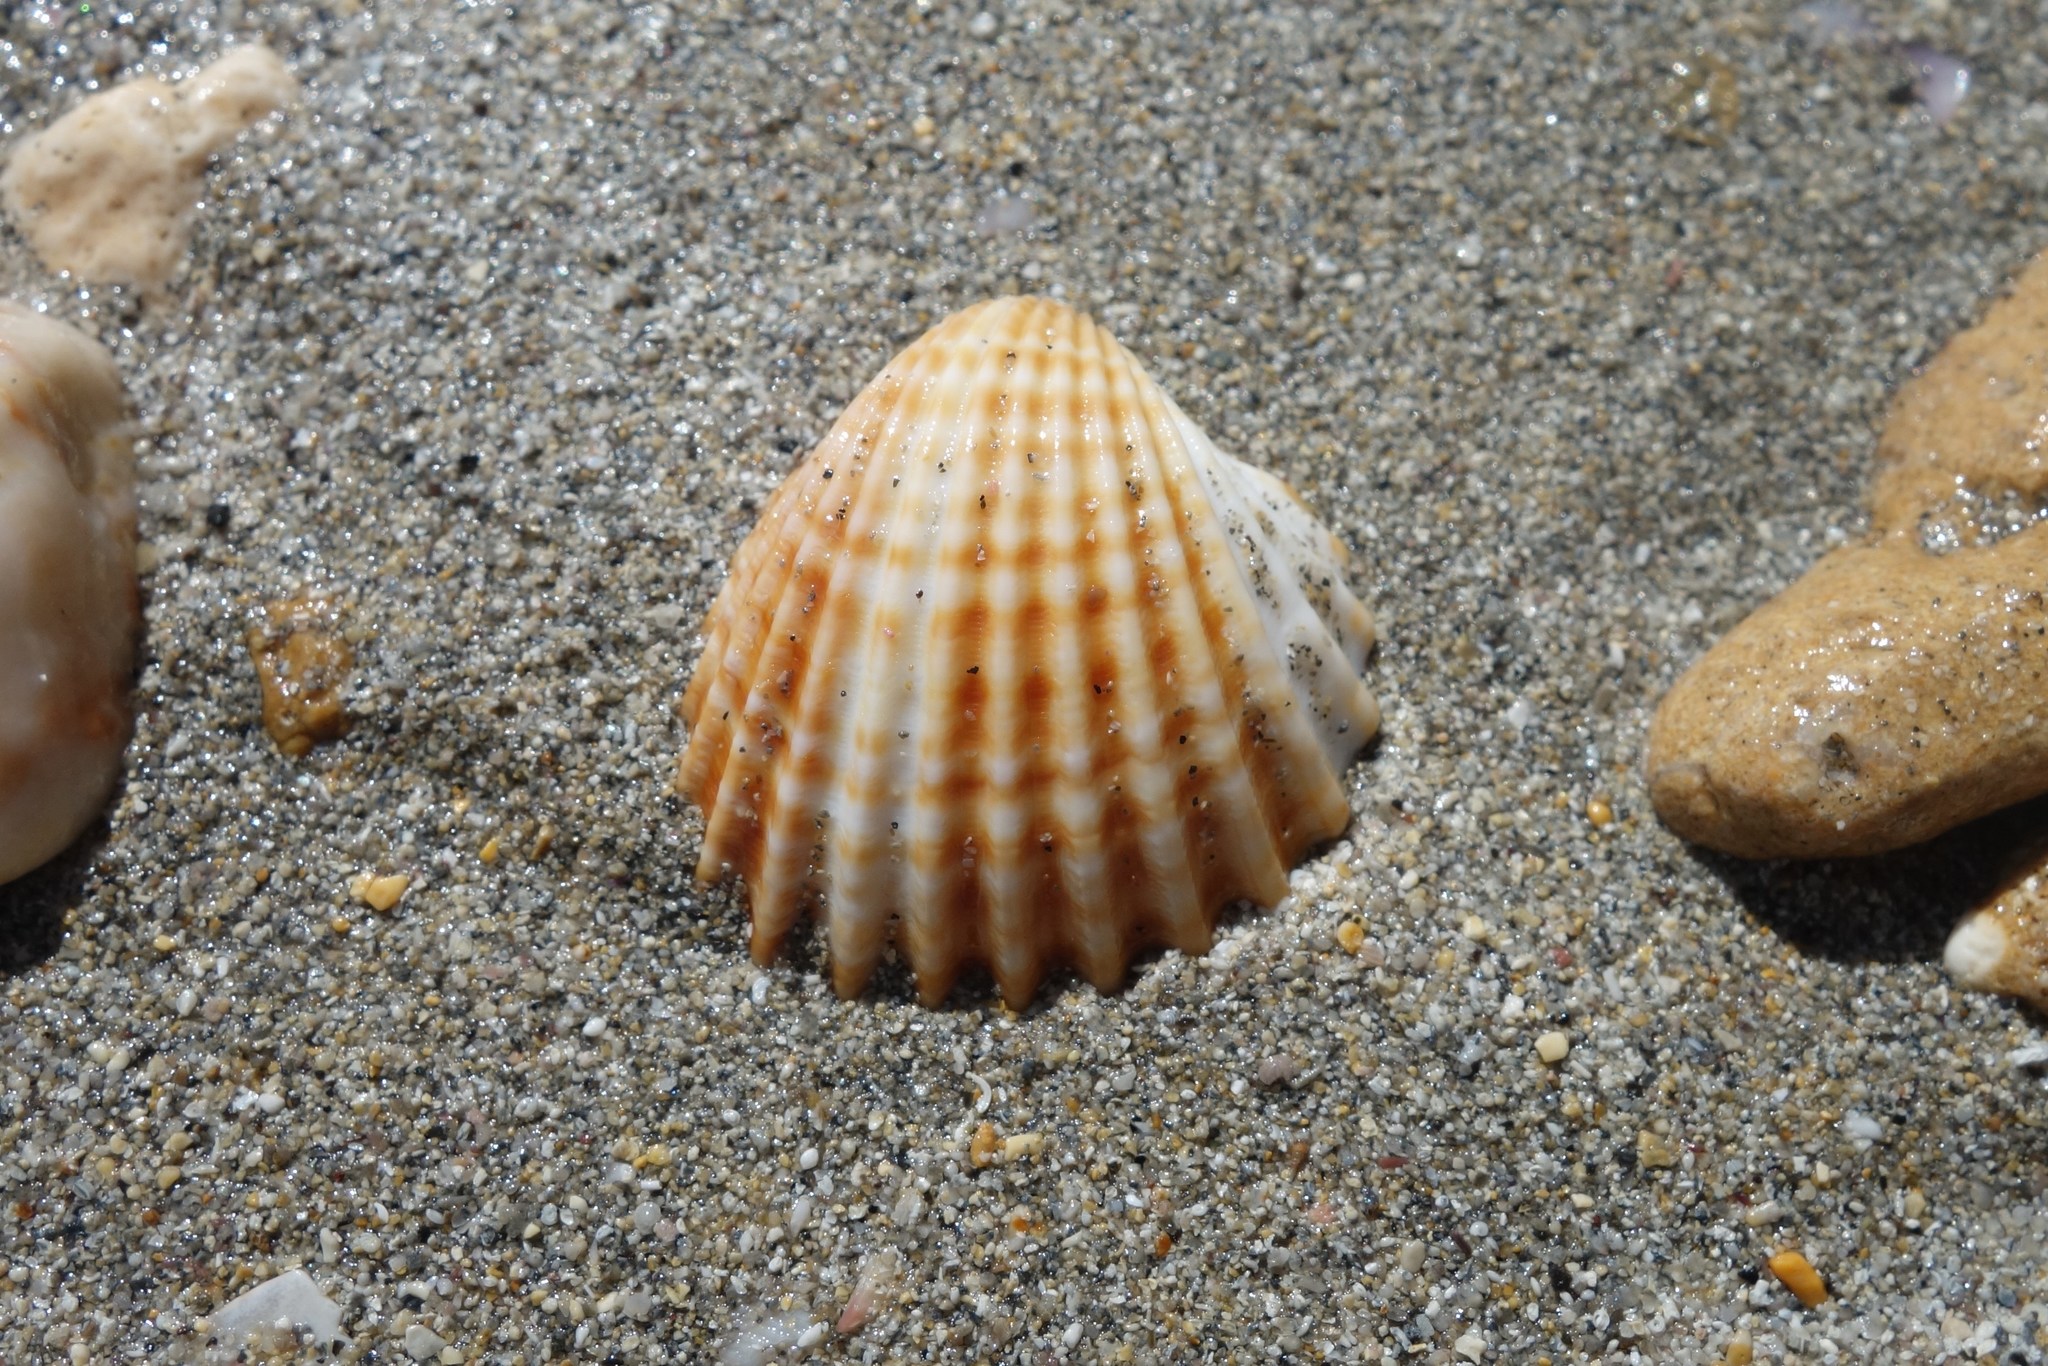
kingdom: Animalia
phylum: Mollusca
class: Bivalvia
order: Cardiida
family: Cardiidae
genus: Acanthocardia
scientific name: Acanthocardia tuberculata
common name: Rough cockle
